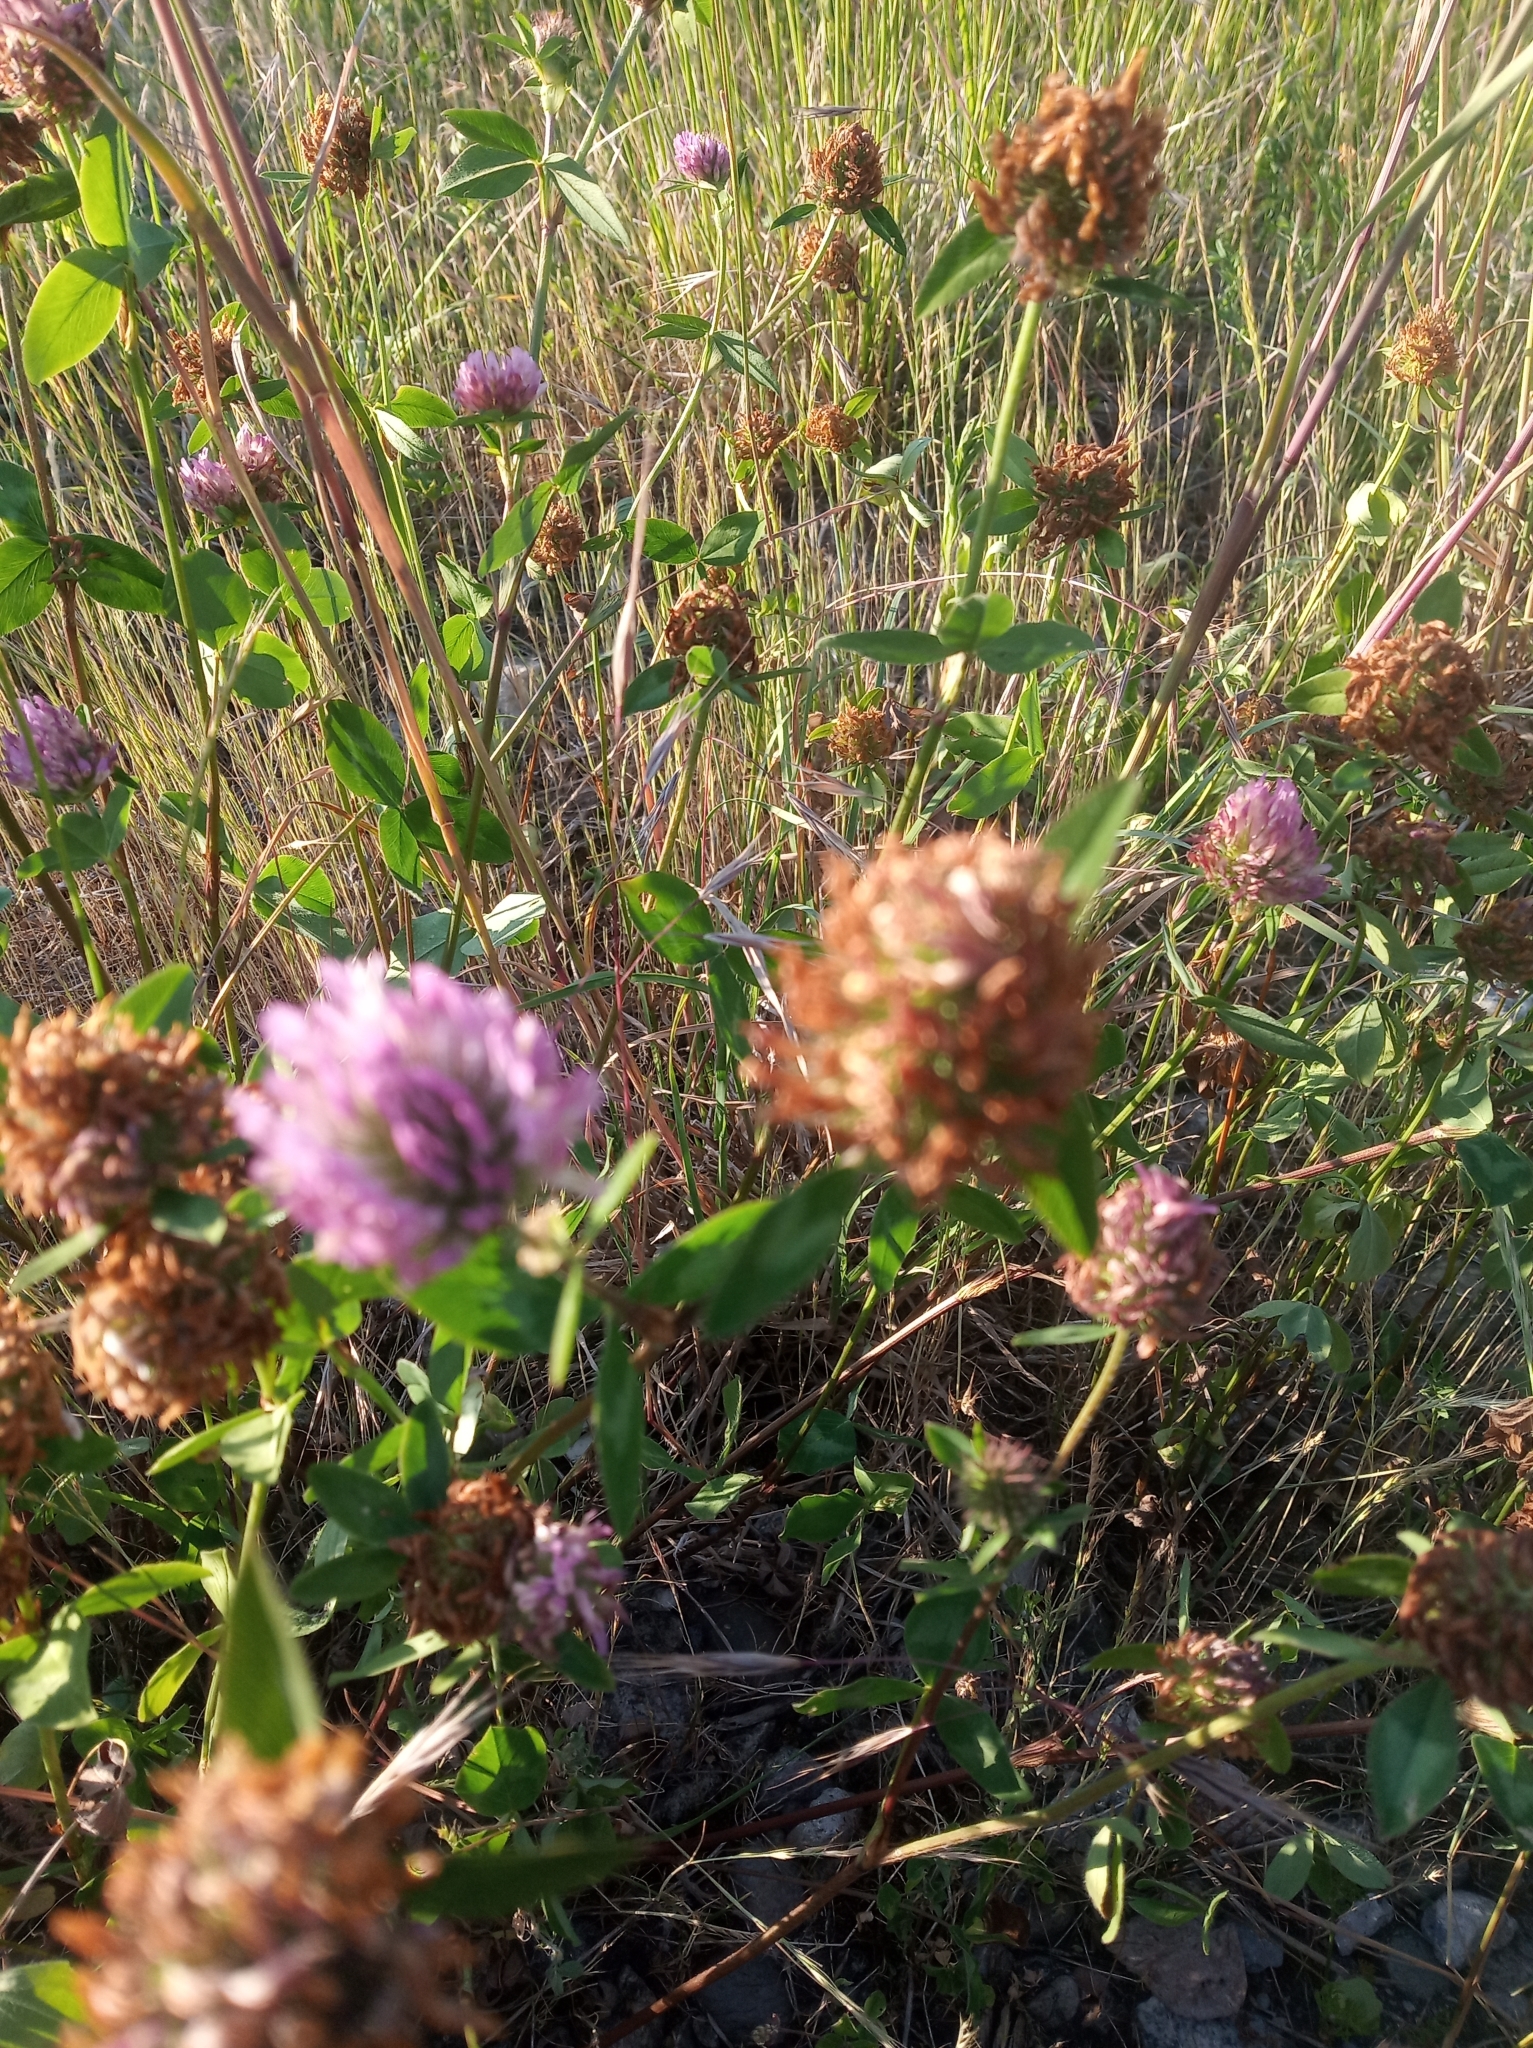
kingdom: Plantae
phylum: Tracheophyta
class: Magnoliopsida
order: Fabales
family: Fabaceae
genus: Trifolium
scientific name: Trifolium pratense
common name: Red clover
